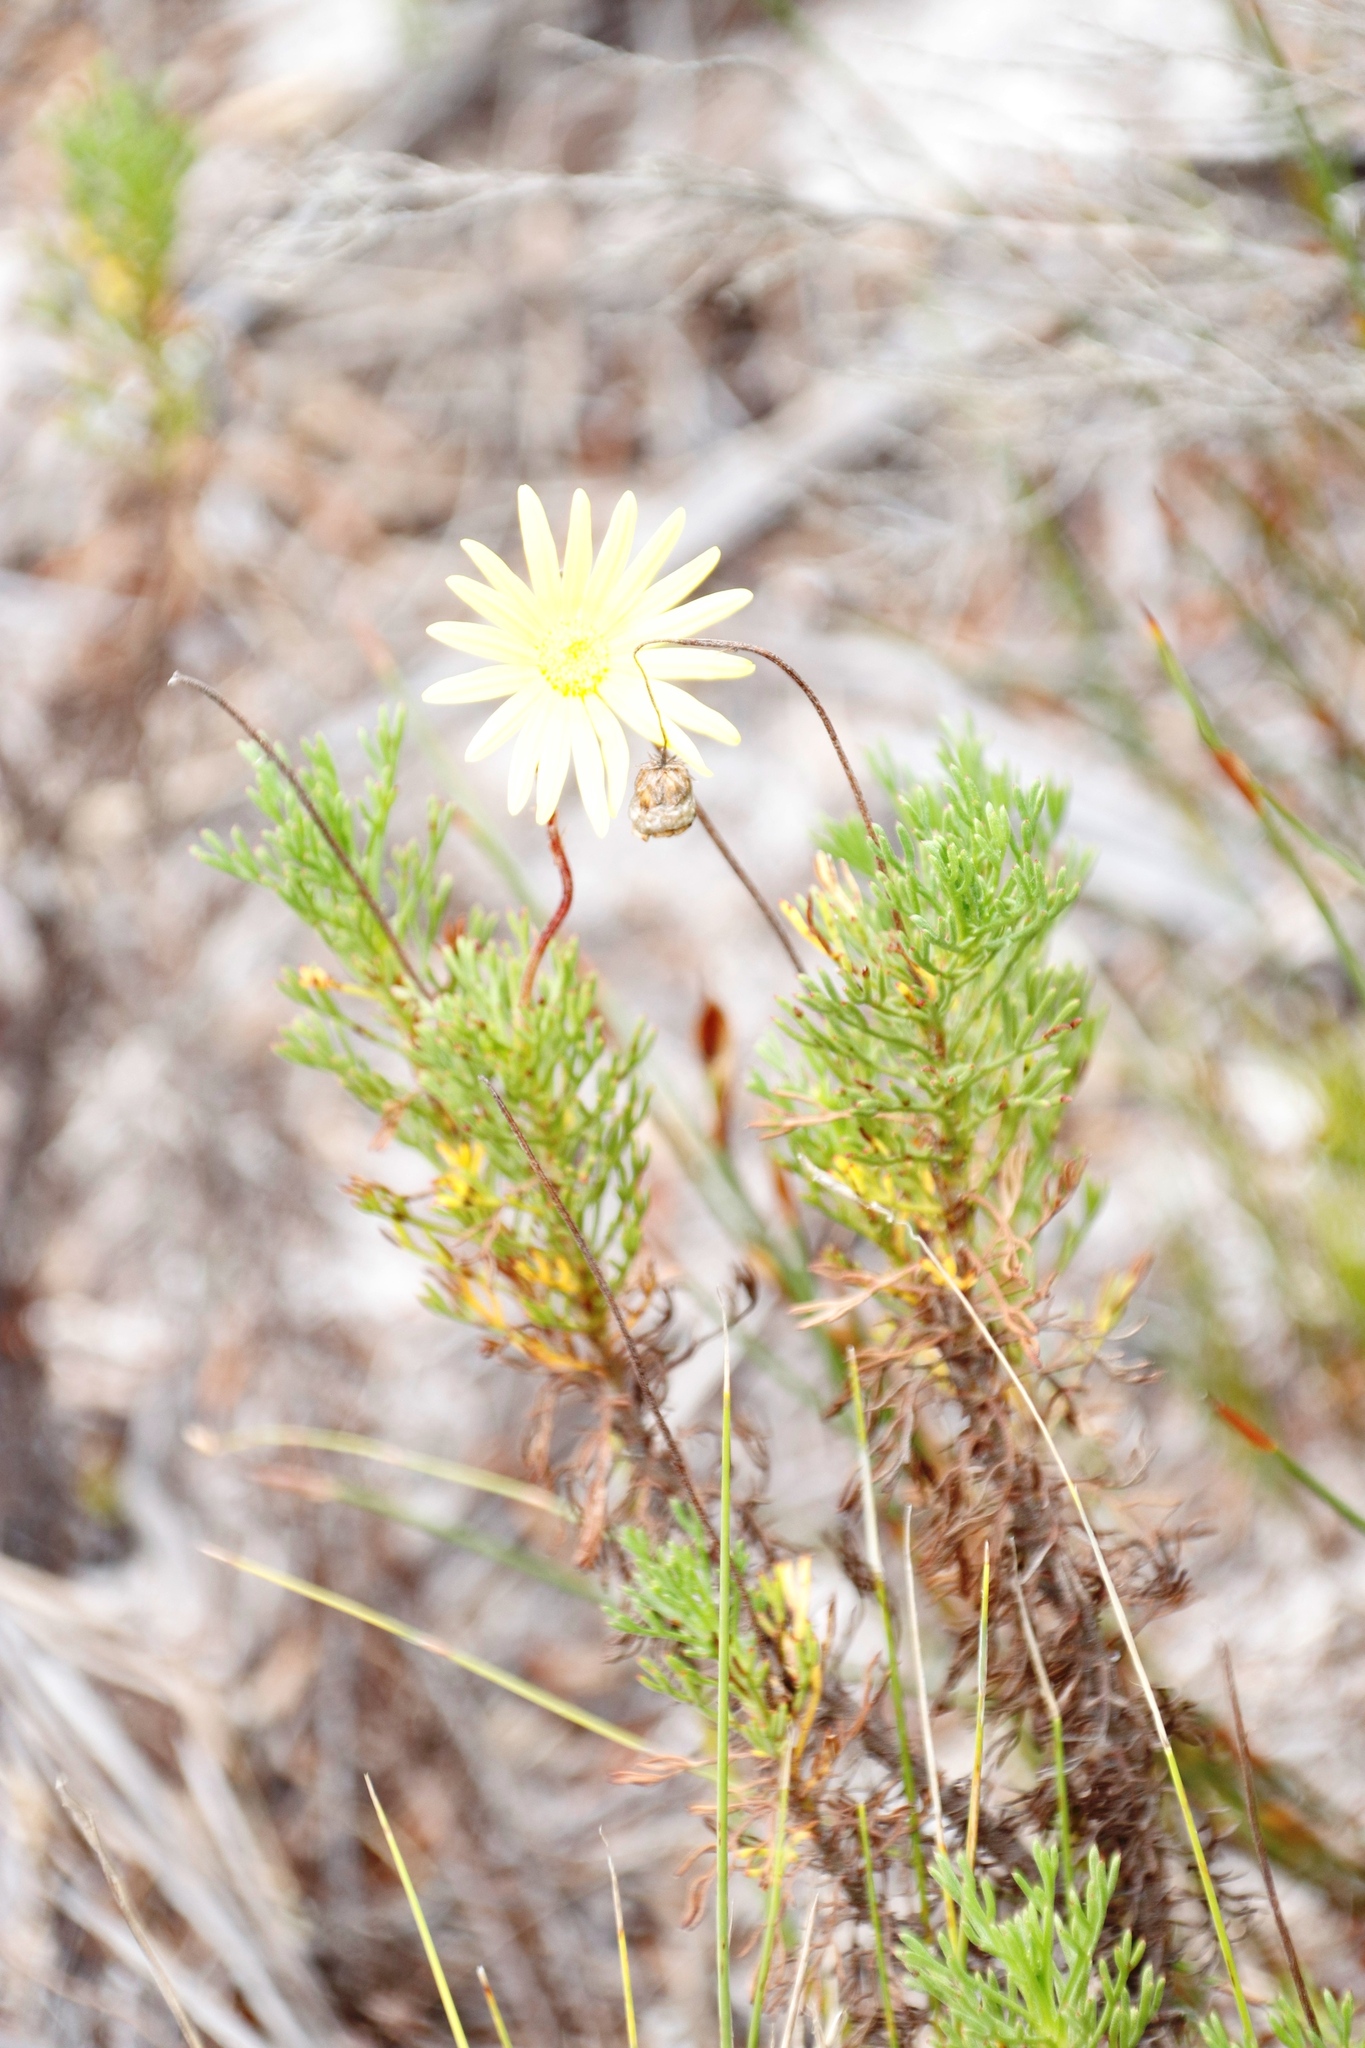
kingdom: Plantae
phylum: Tracheophyta
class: Magnoliopsida
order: Asterales
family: Asteraceae
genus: Ursinia
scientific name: Ursinia paleacea
